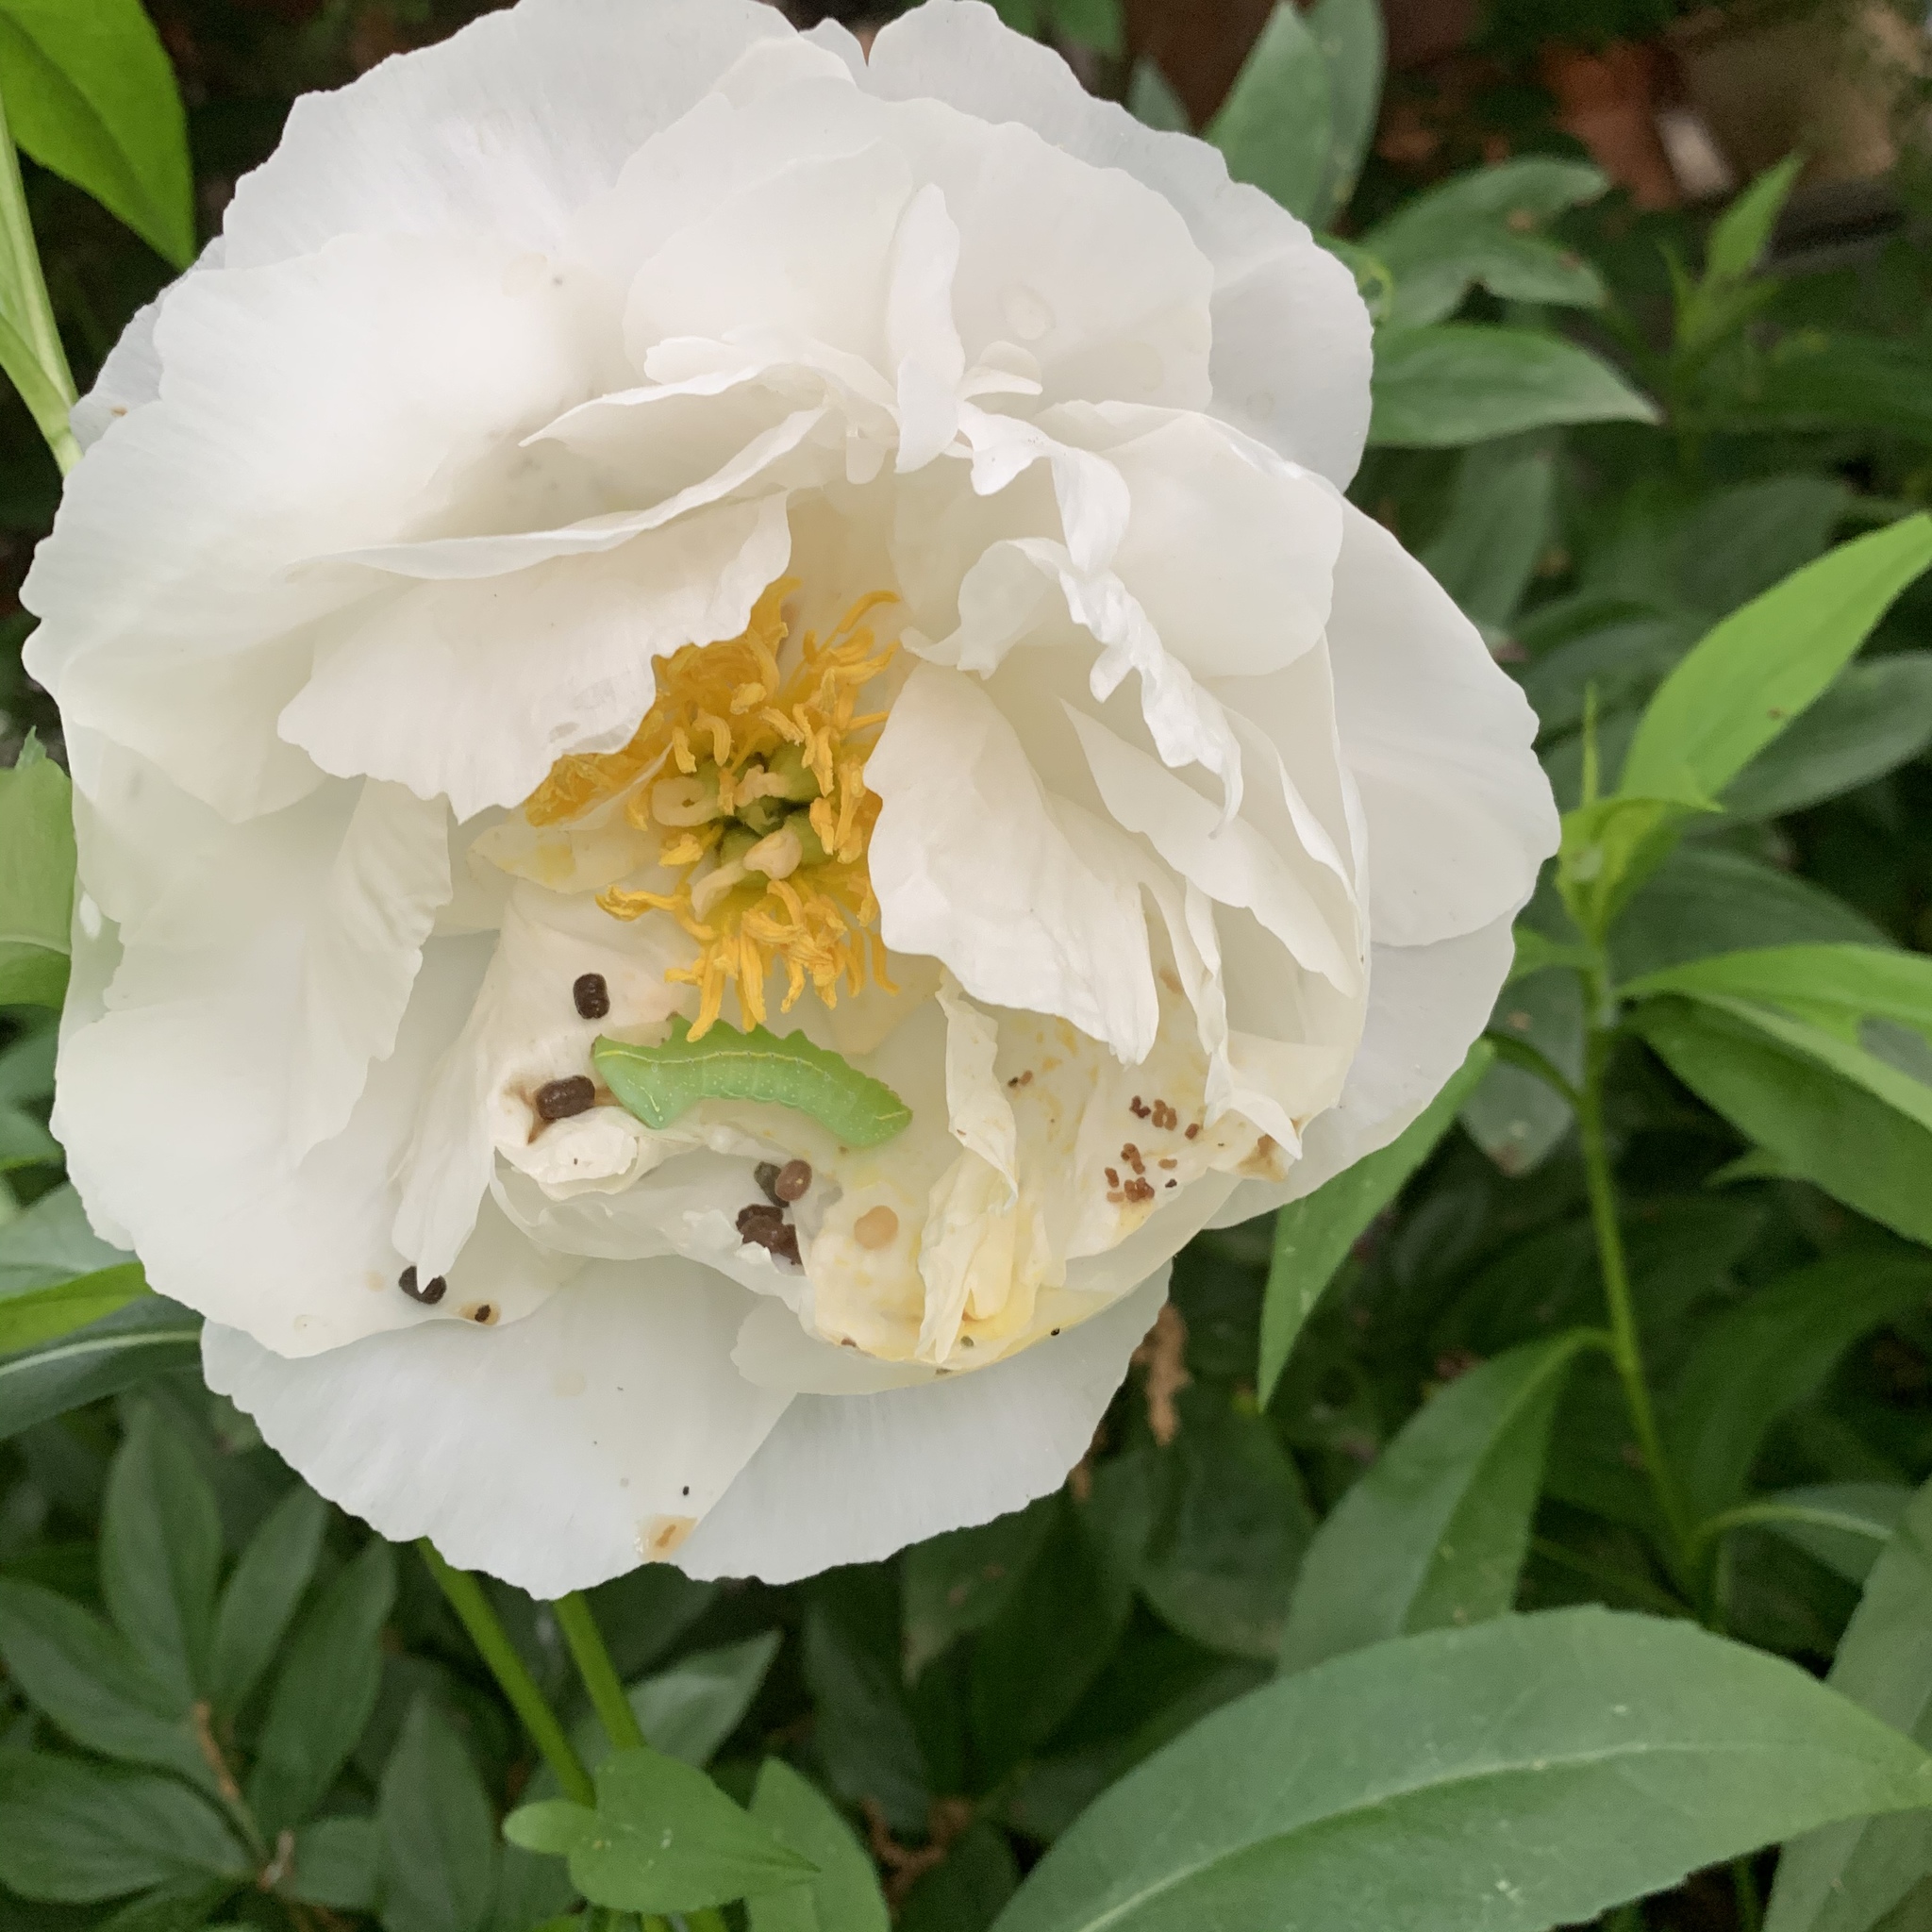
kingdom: Animalia
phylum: Arthropoda
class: Insecta
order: Lepidoptera
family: Noctuidae
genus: Amphipyra
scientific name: Amphipyra pyramidoides
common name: American copper underwing
